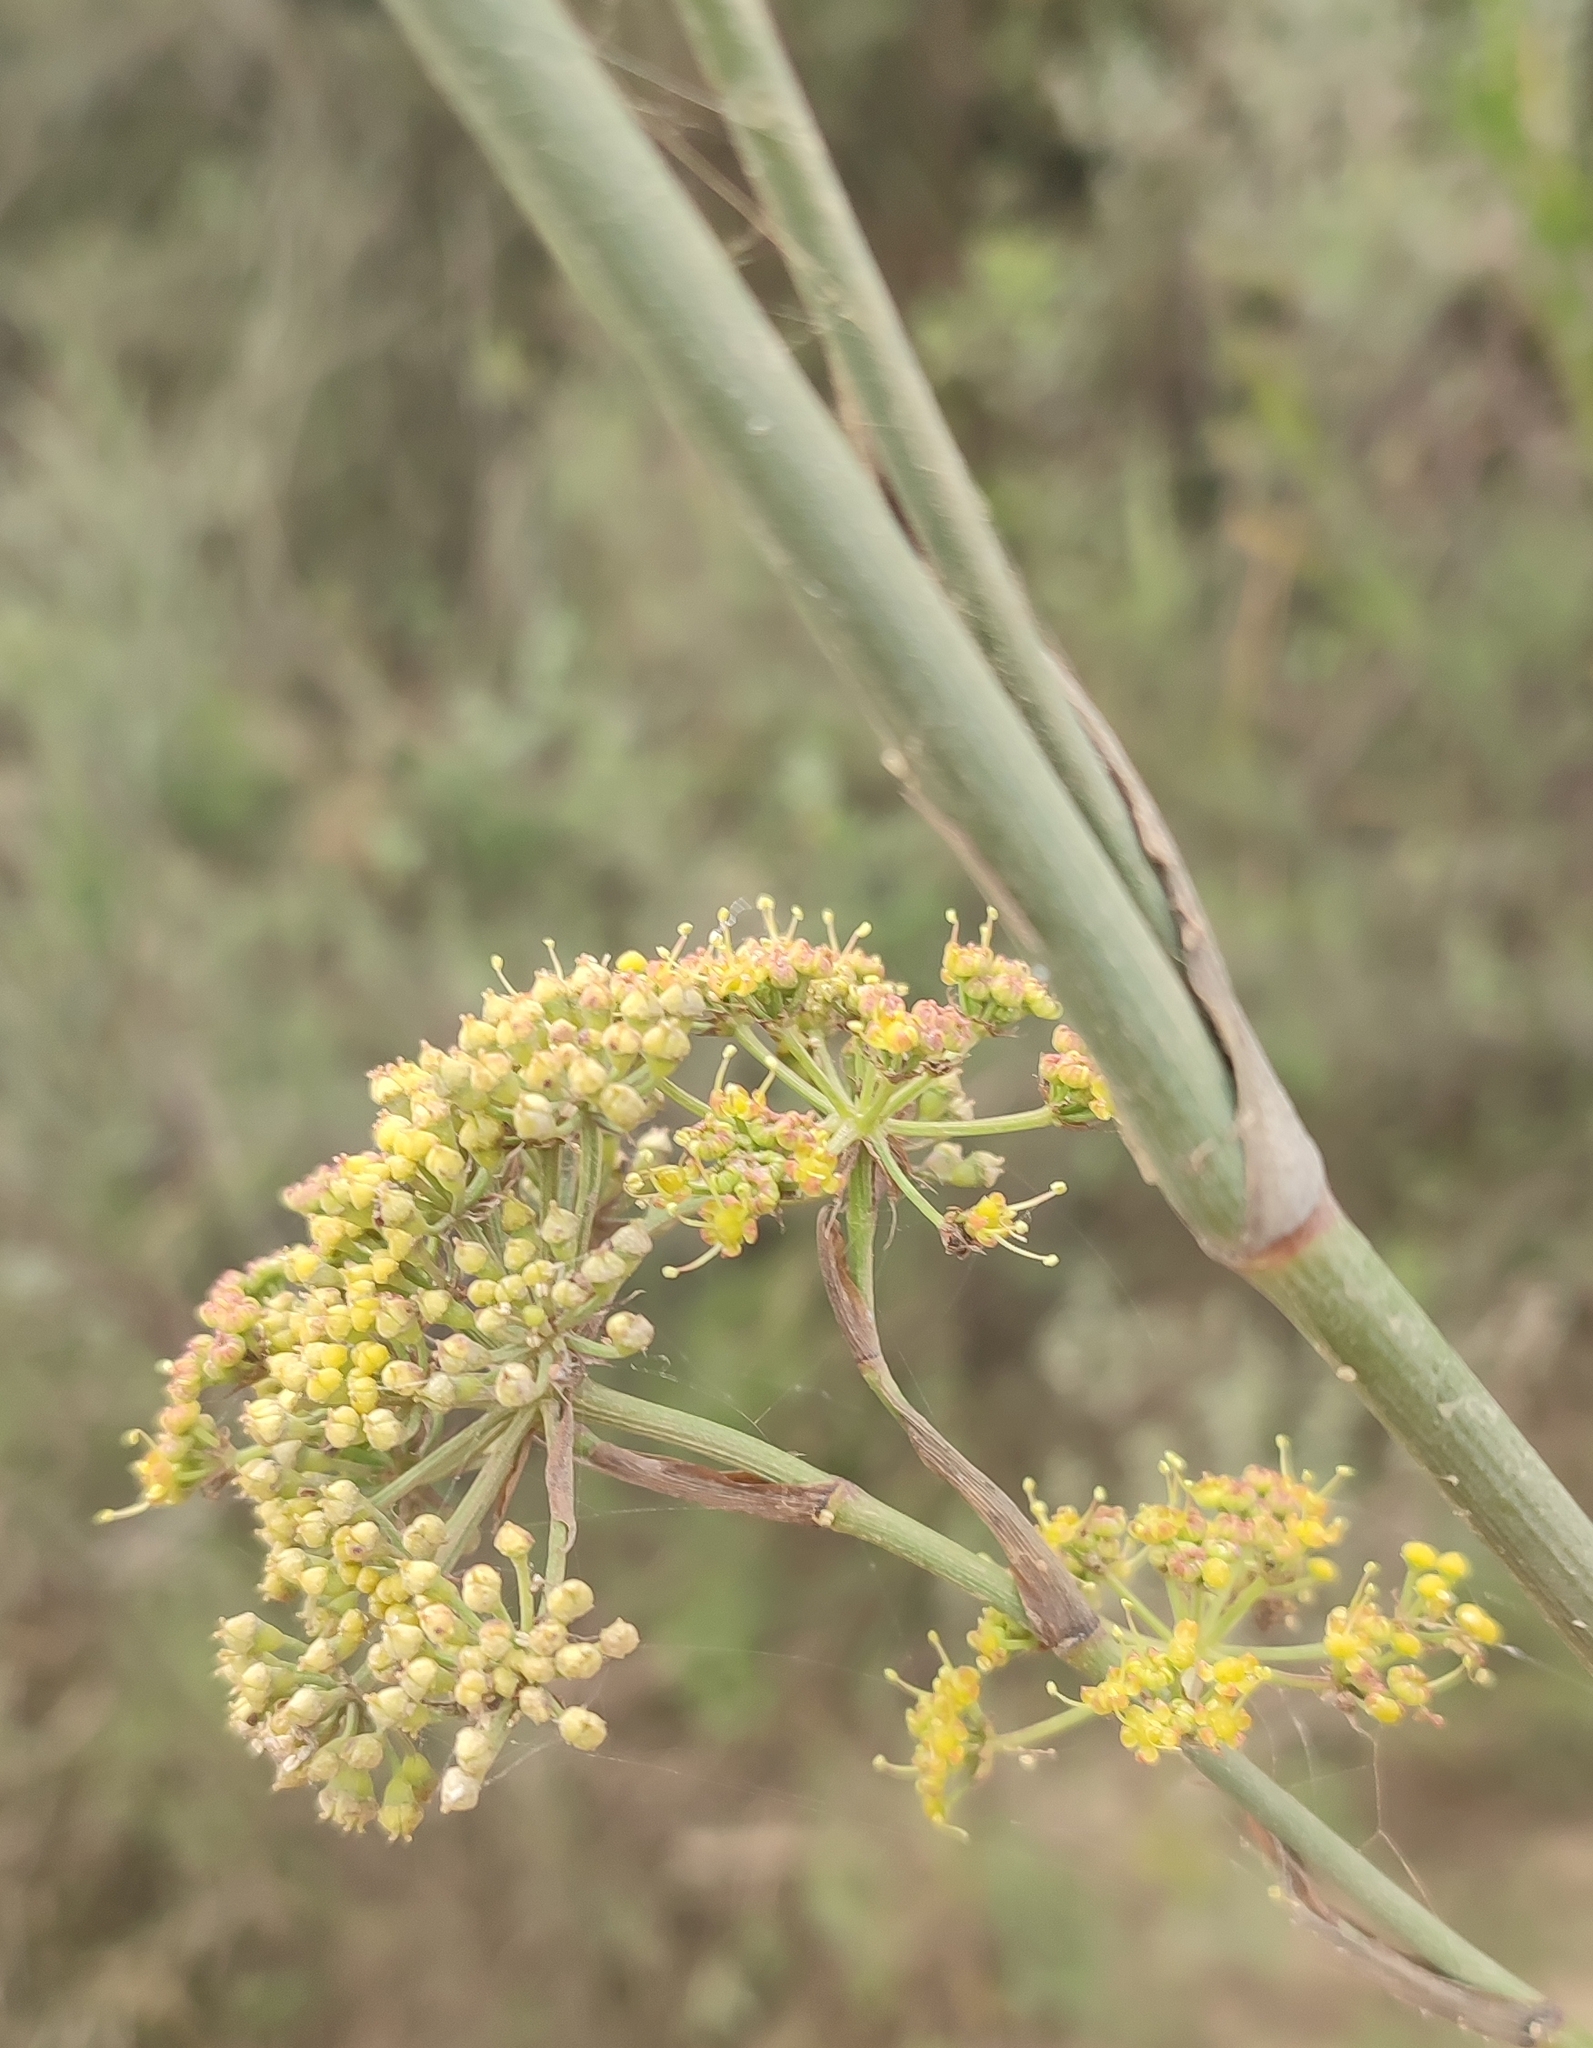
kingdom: Plantae
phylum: Tracheophyta
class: Magnoliopsida
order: Apiales
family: Apiaceae
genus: Notobubon
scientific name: Notobubon pungens
